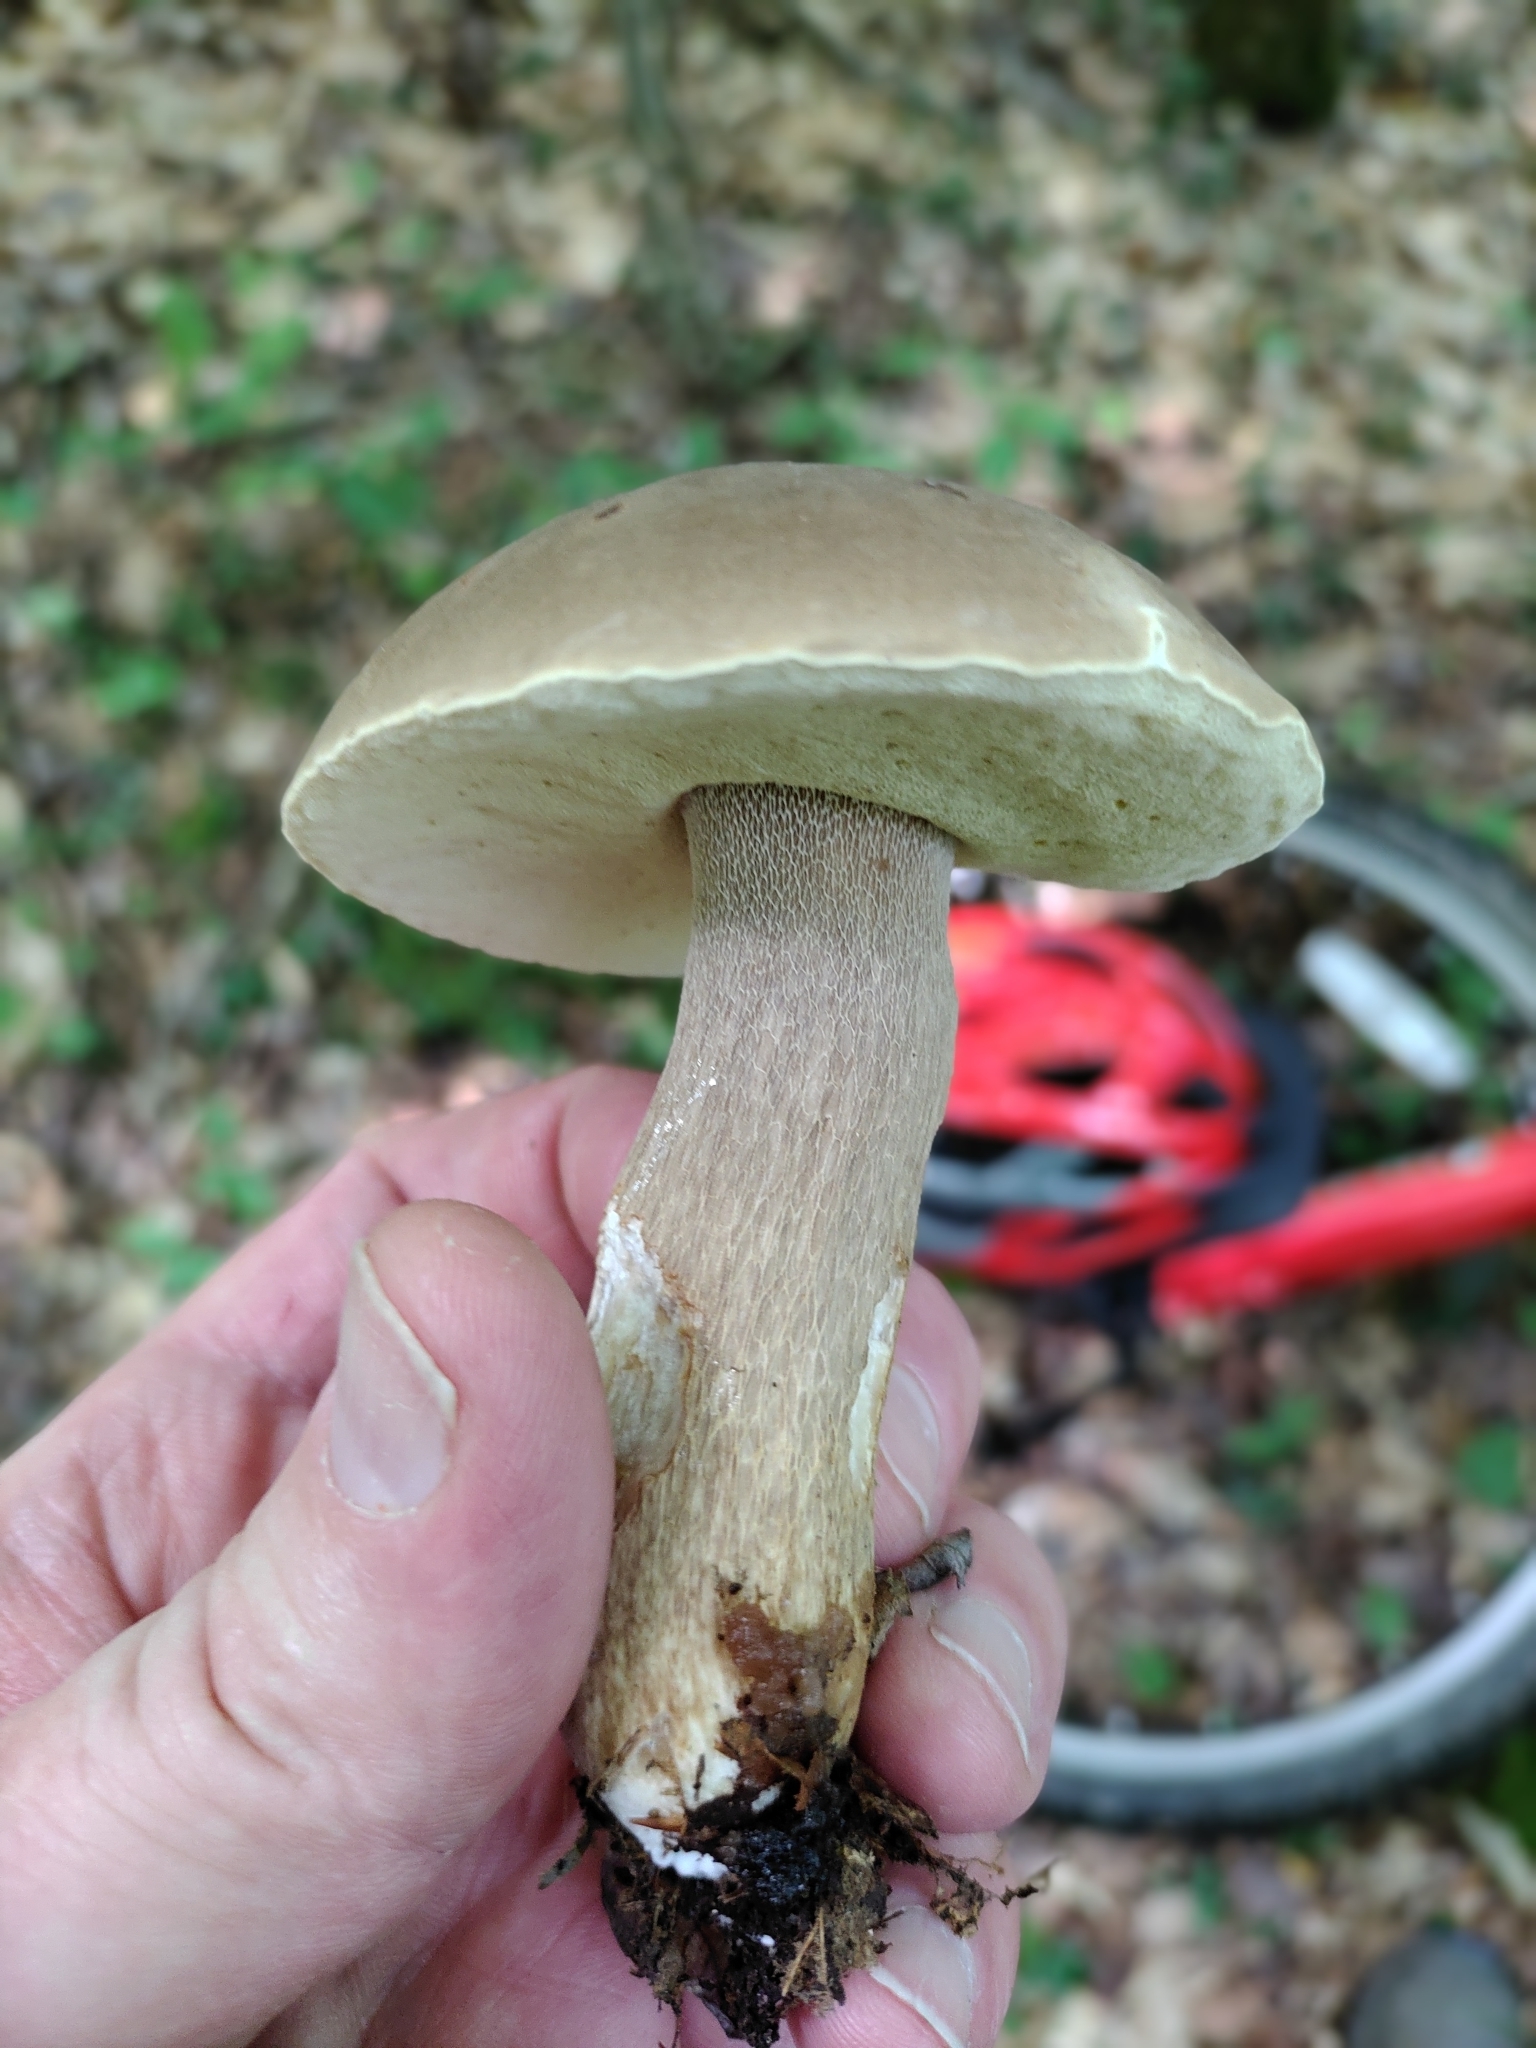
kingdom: Fungi
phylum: Basidiomycota
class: Agaricomycetes
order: Boletales
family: Boletaceae
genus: Boletus
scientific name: Boletus variipes
